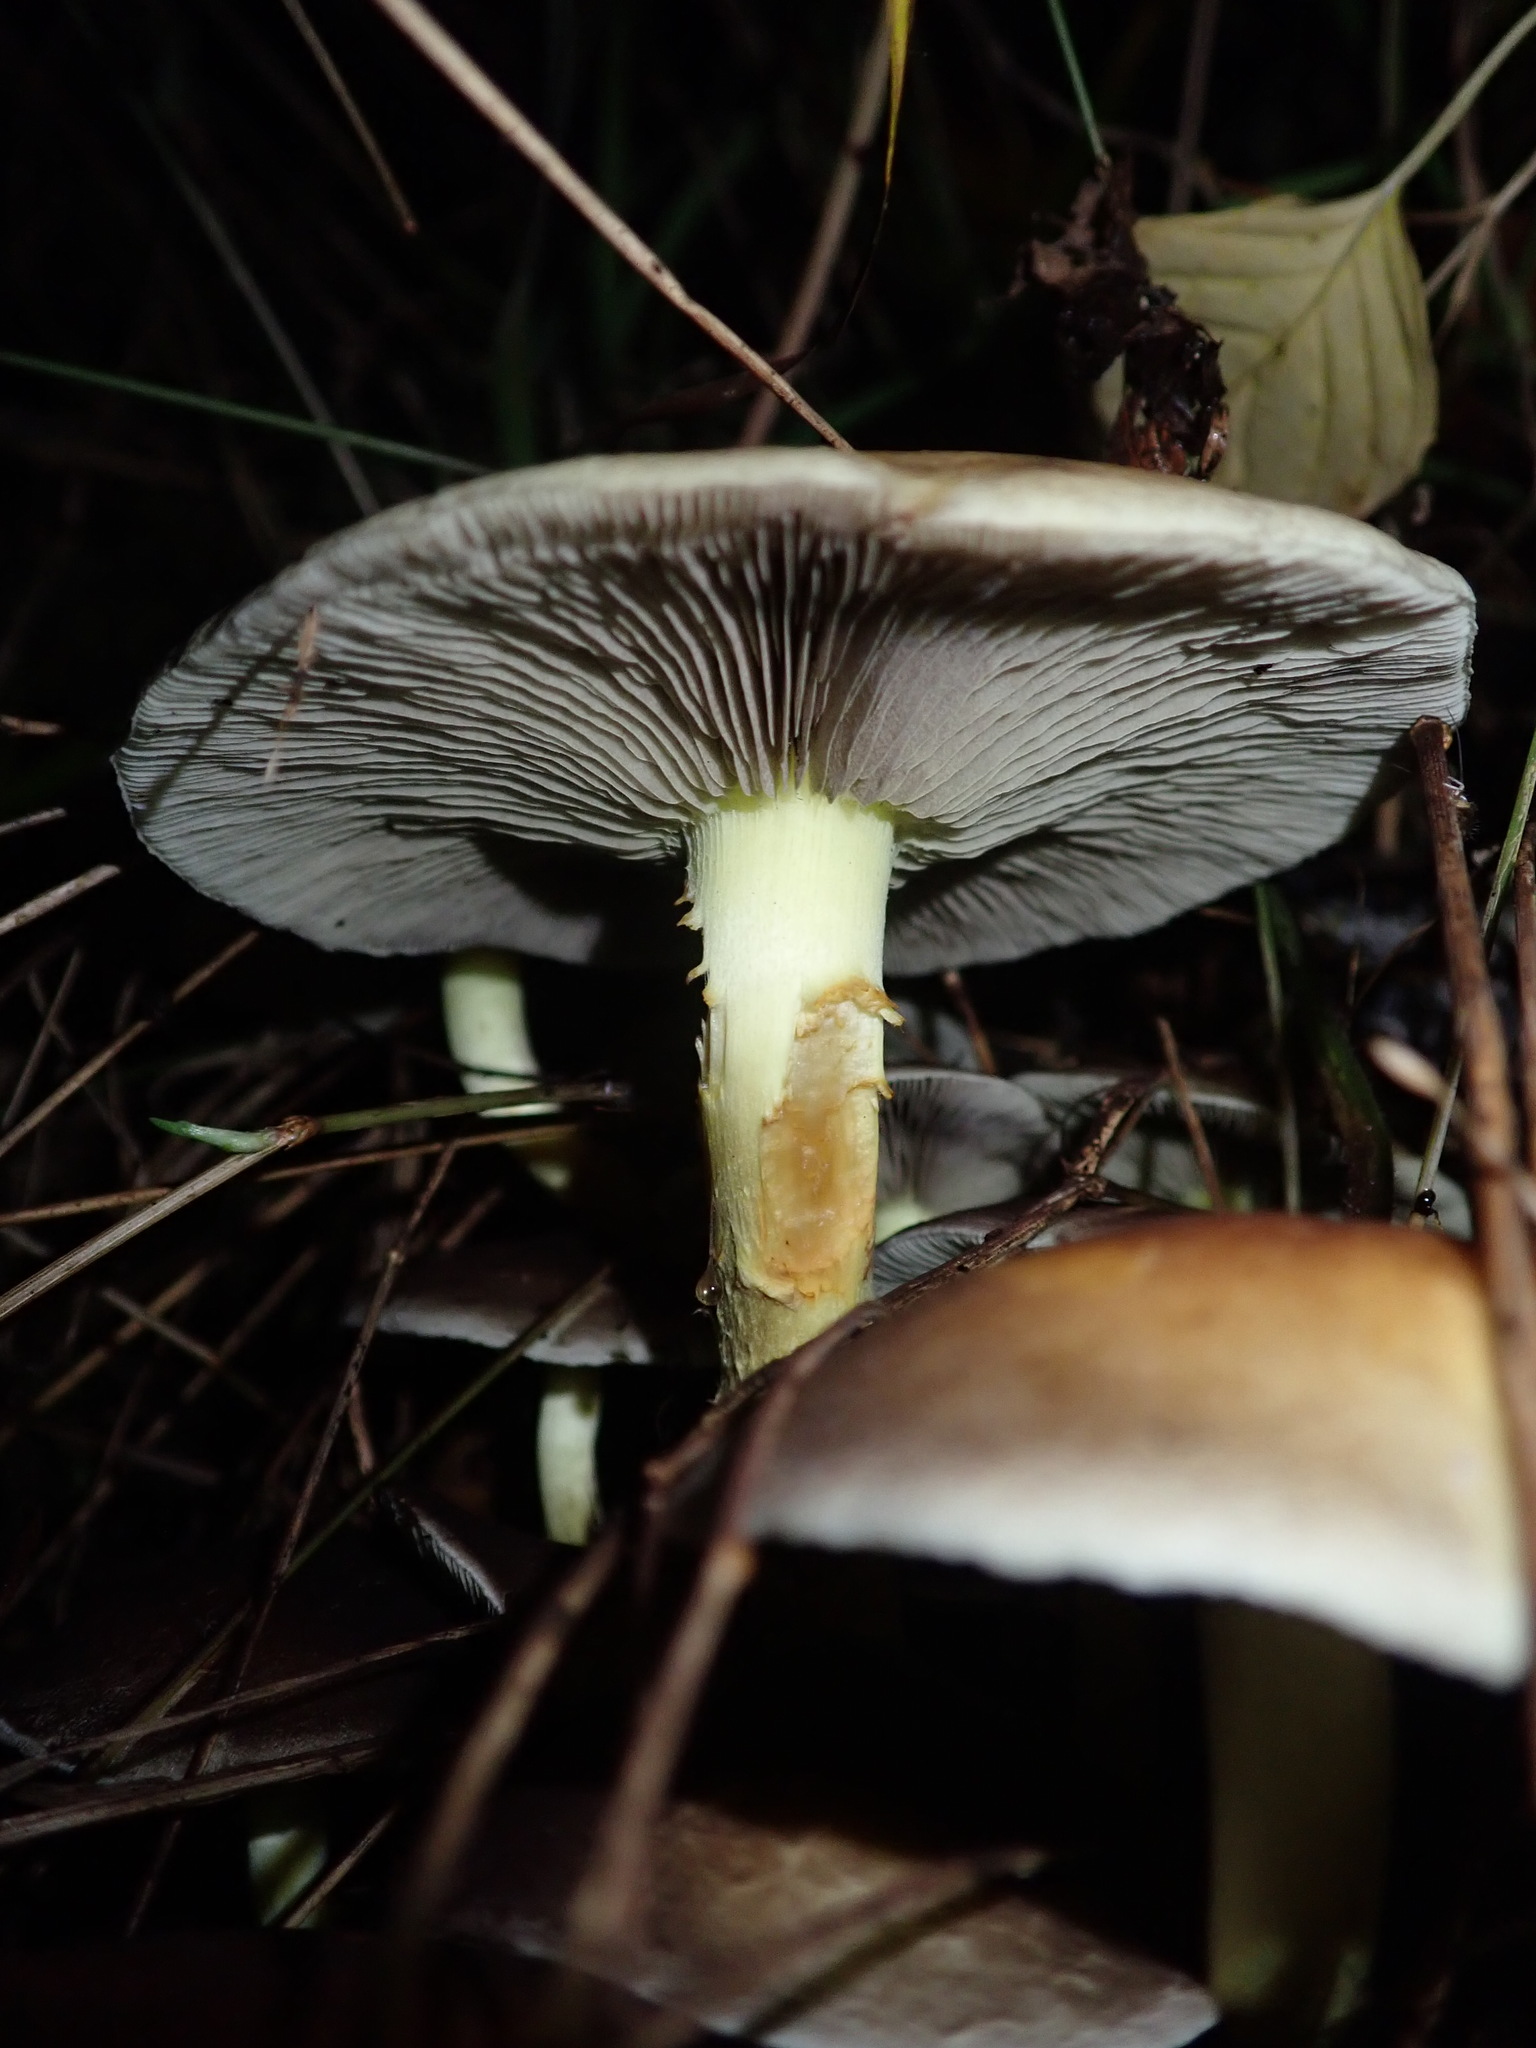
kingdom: Fungi
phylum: Basidiomycota
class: Agaricomycetes
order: Agaricales
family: Strophariaceae
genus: Hypholoma
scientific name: Hypholoma fasciculare
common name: Sulphur tuft
